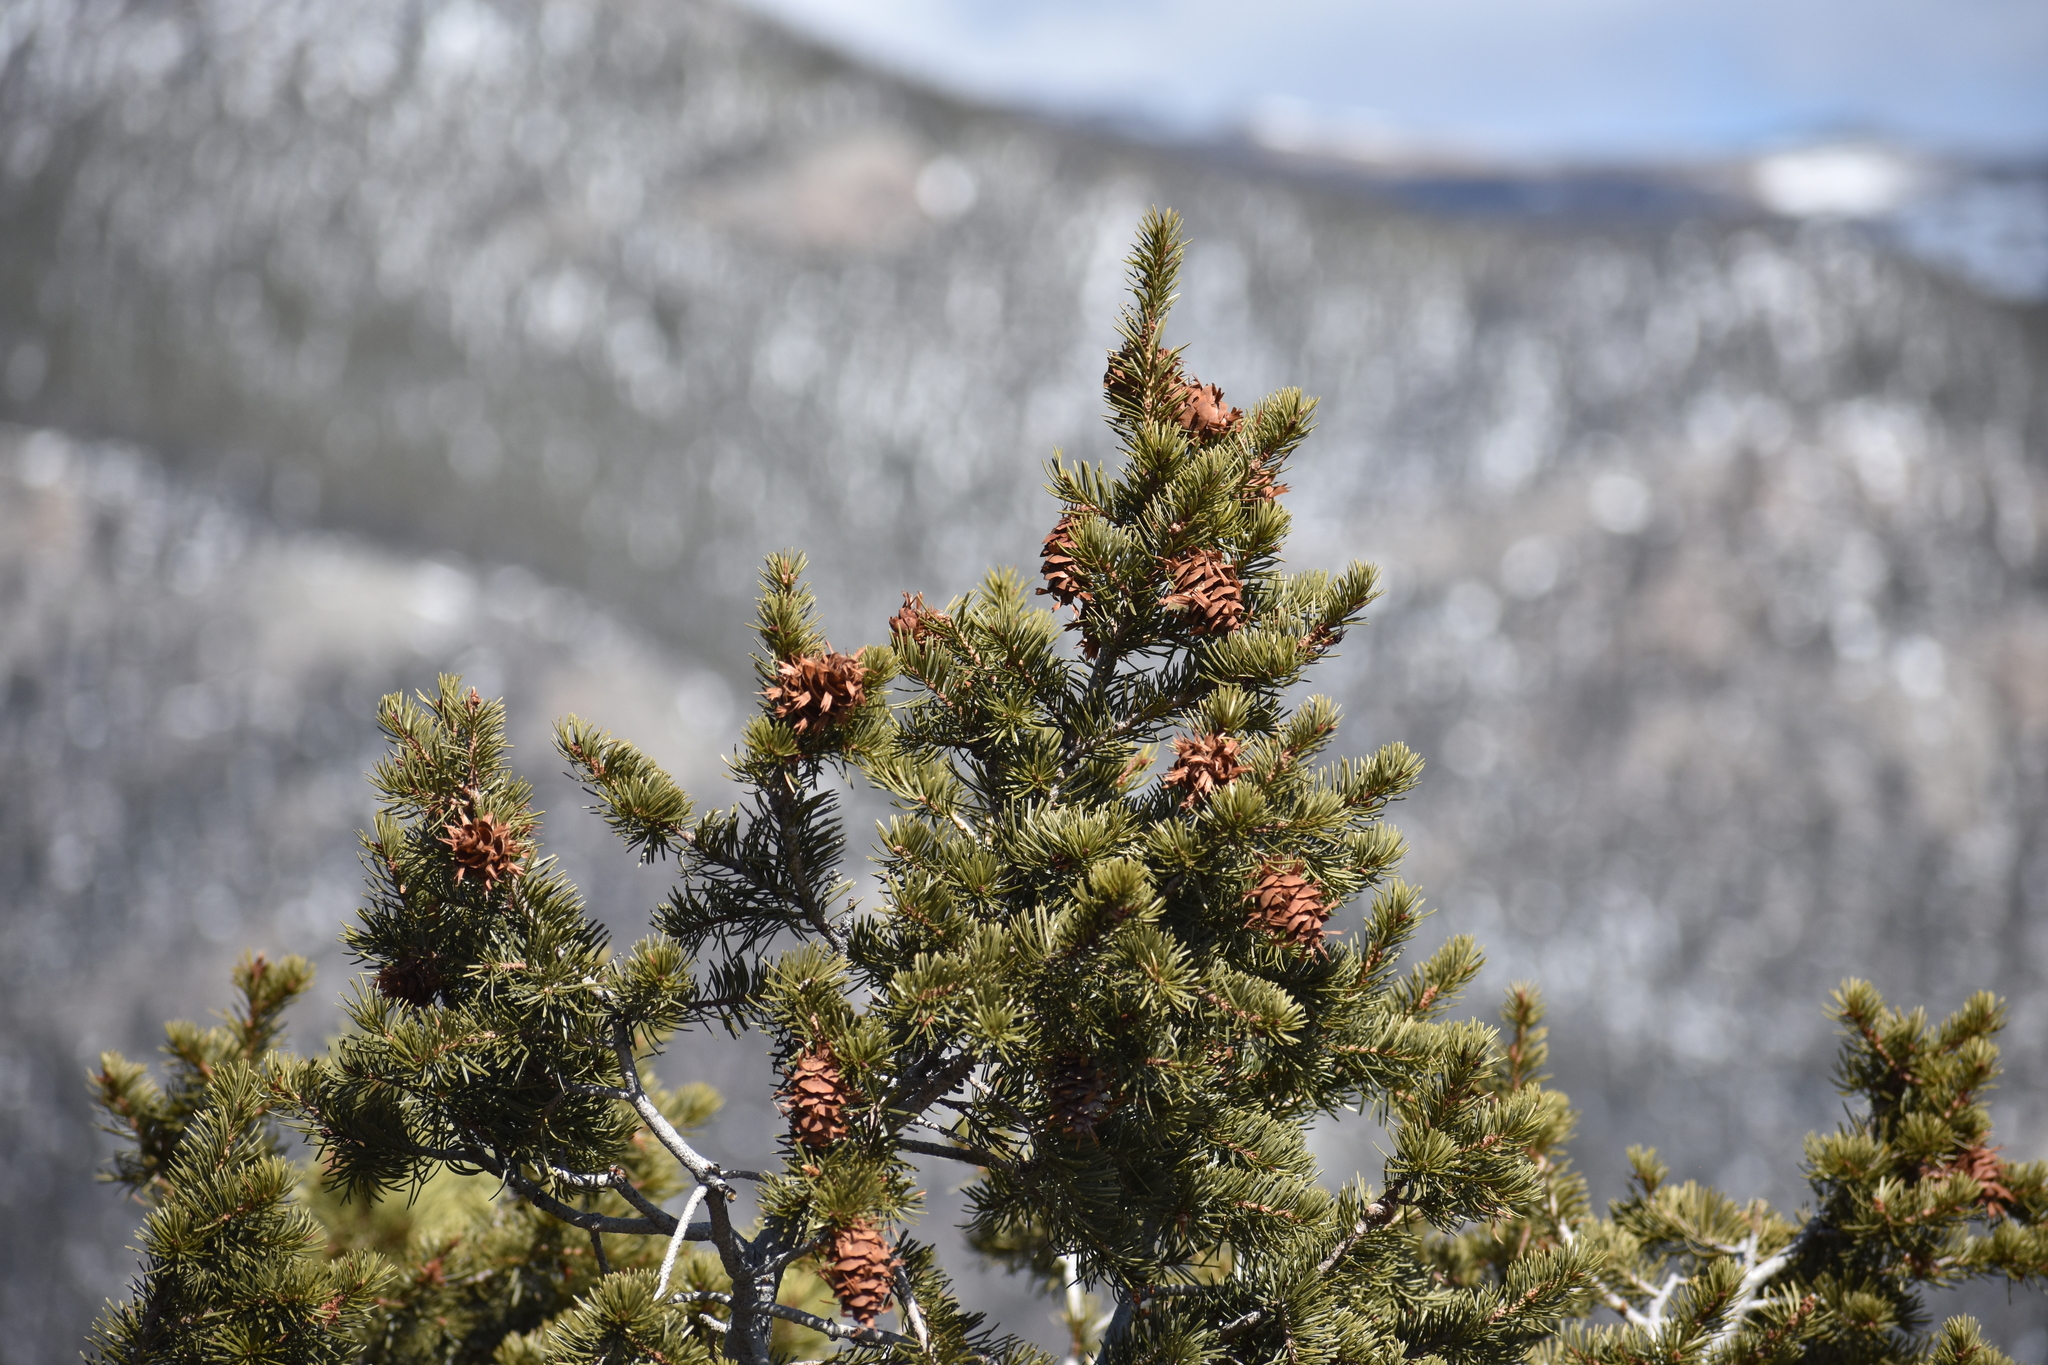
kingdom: Plantae
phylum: Tracheophyta
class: Pinopsida
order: Pinales
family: Pinaceae
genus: Pseudotsuga
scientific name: Pseudotsuga menziesii
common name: Douglas fir
